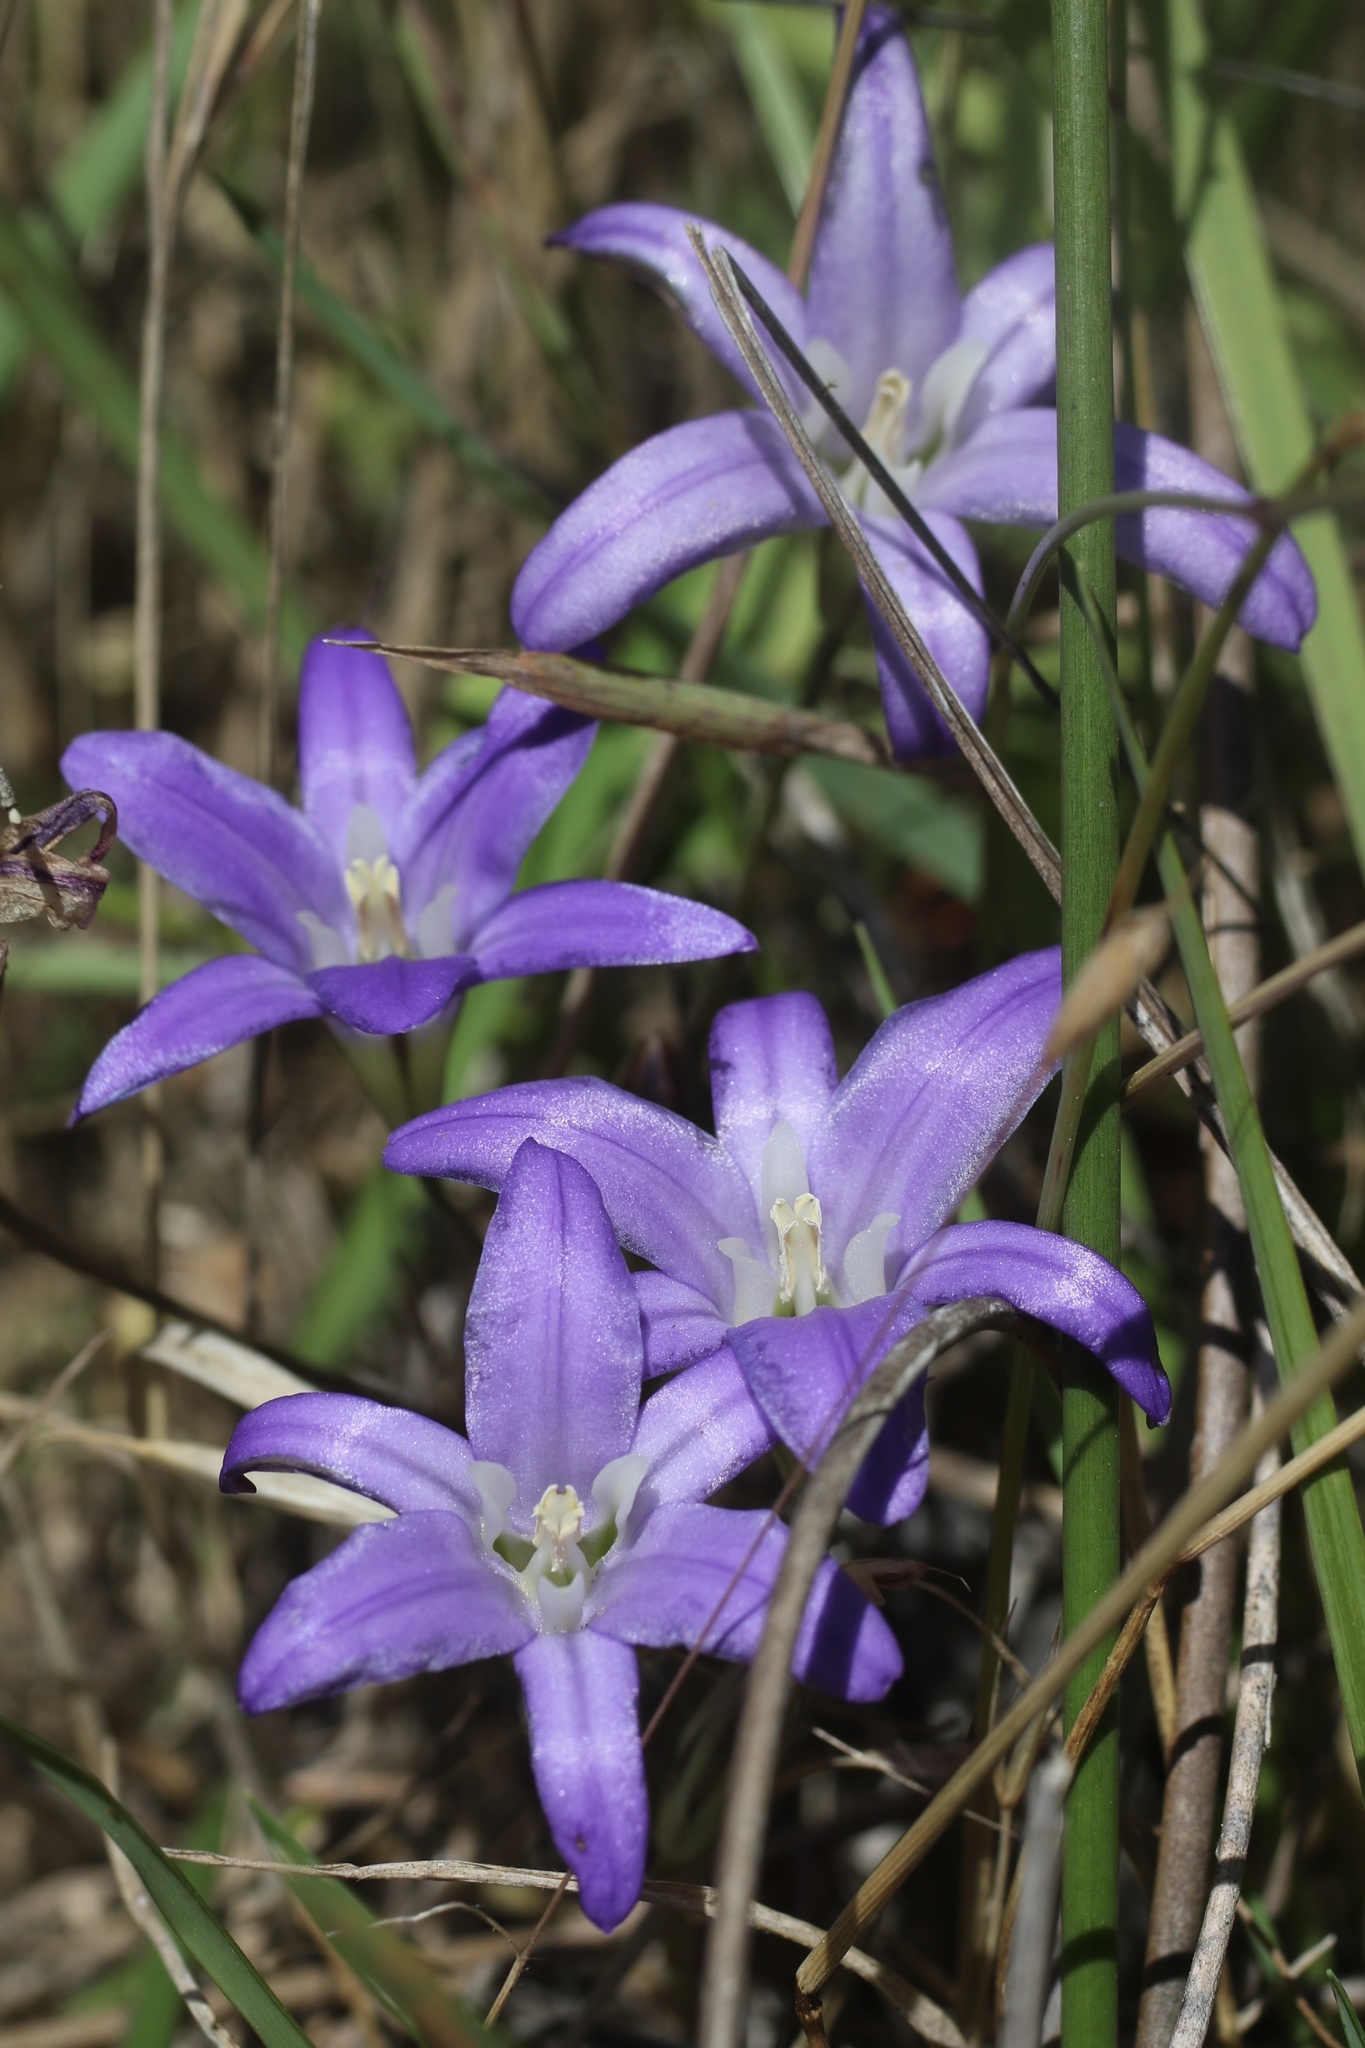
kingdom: Plantae
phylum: Tracheophyta
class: Liliopsida
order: Asparagales
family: Asparagaceae
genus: Brodiaea
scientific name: Brodiaea terrestris
